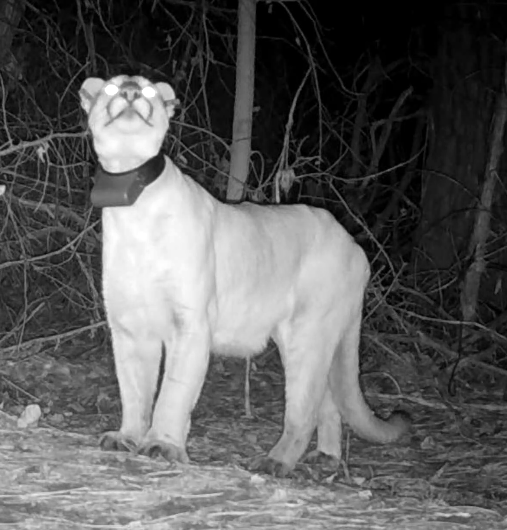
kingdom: Animalia
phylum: Chordata
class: Mammalia
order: Carnivora
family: Felidae
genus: Puma
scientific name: Puma concolor
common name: Puma
